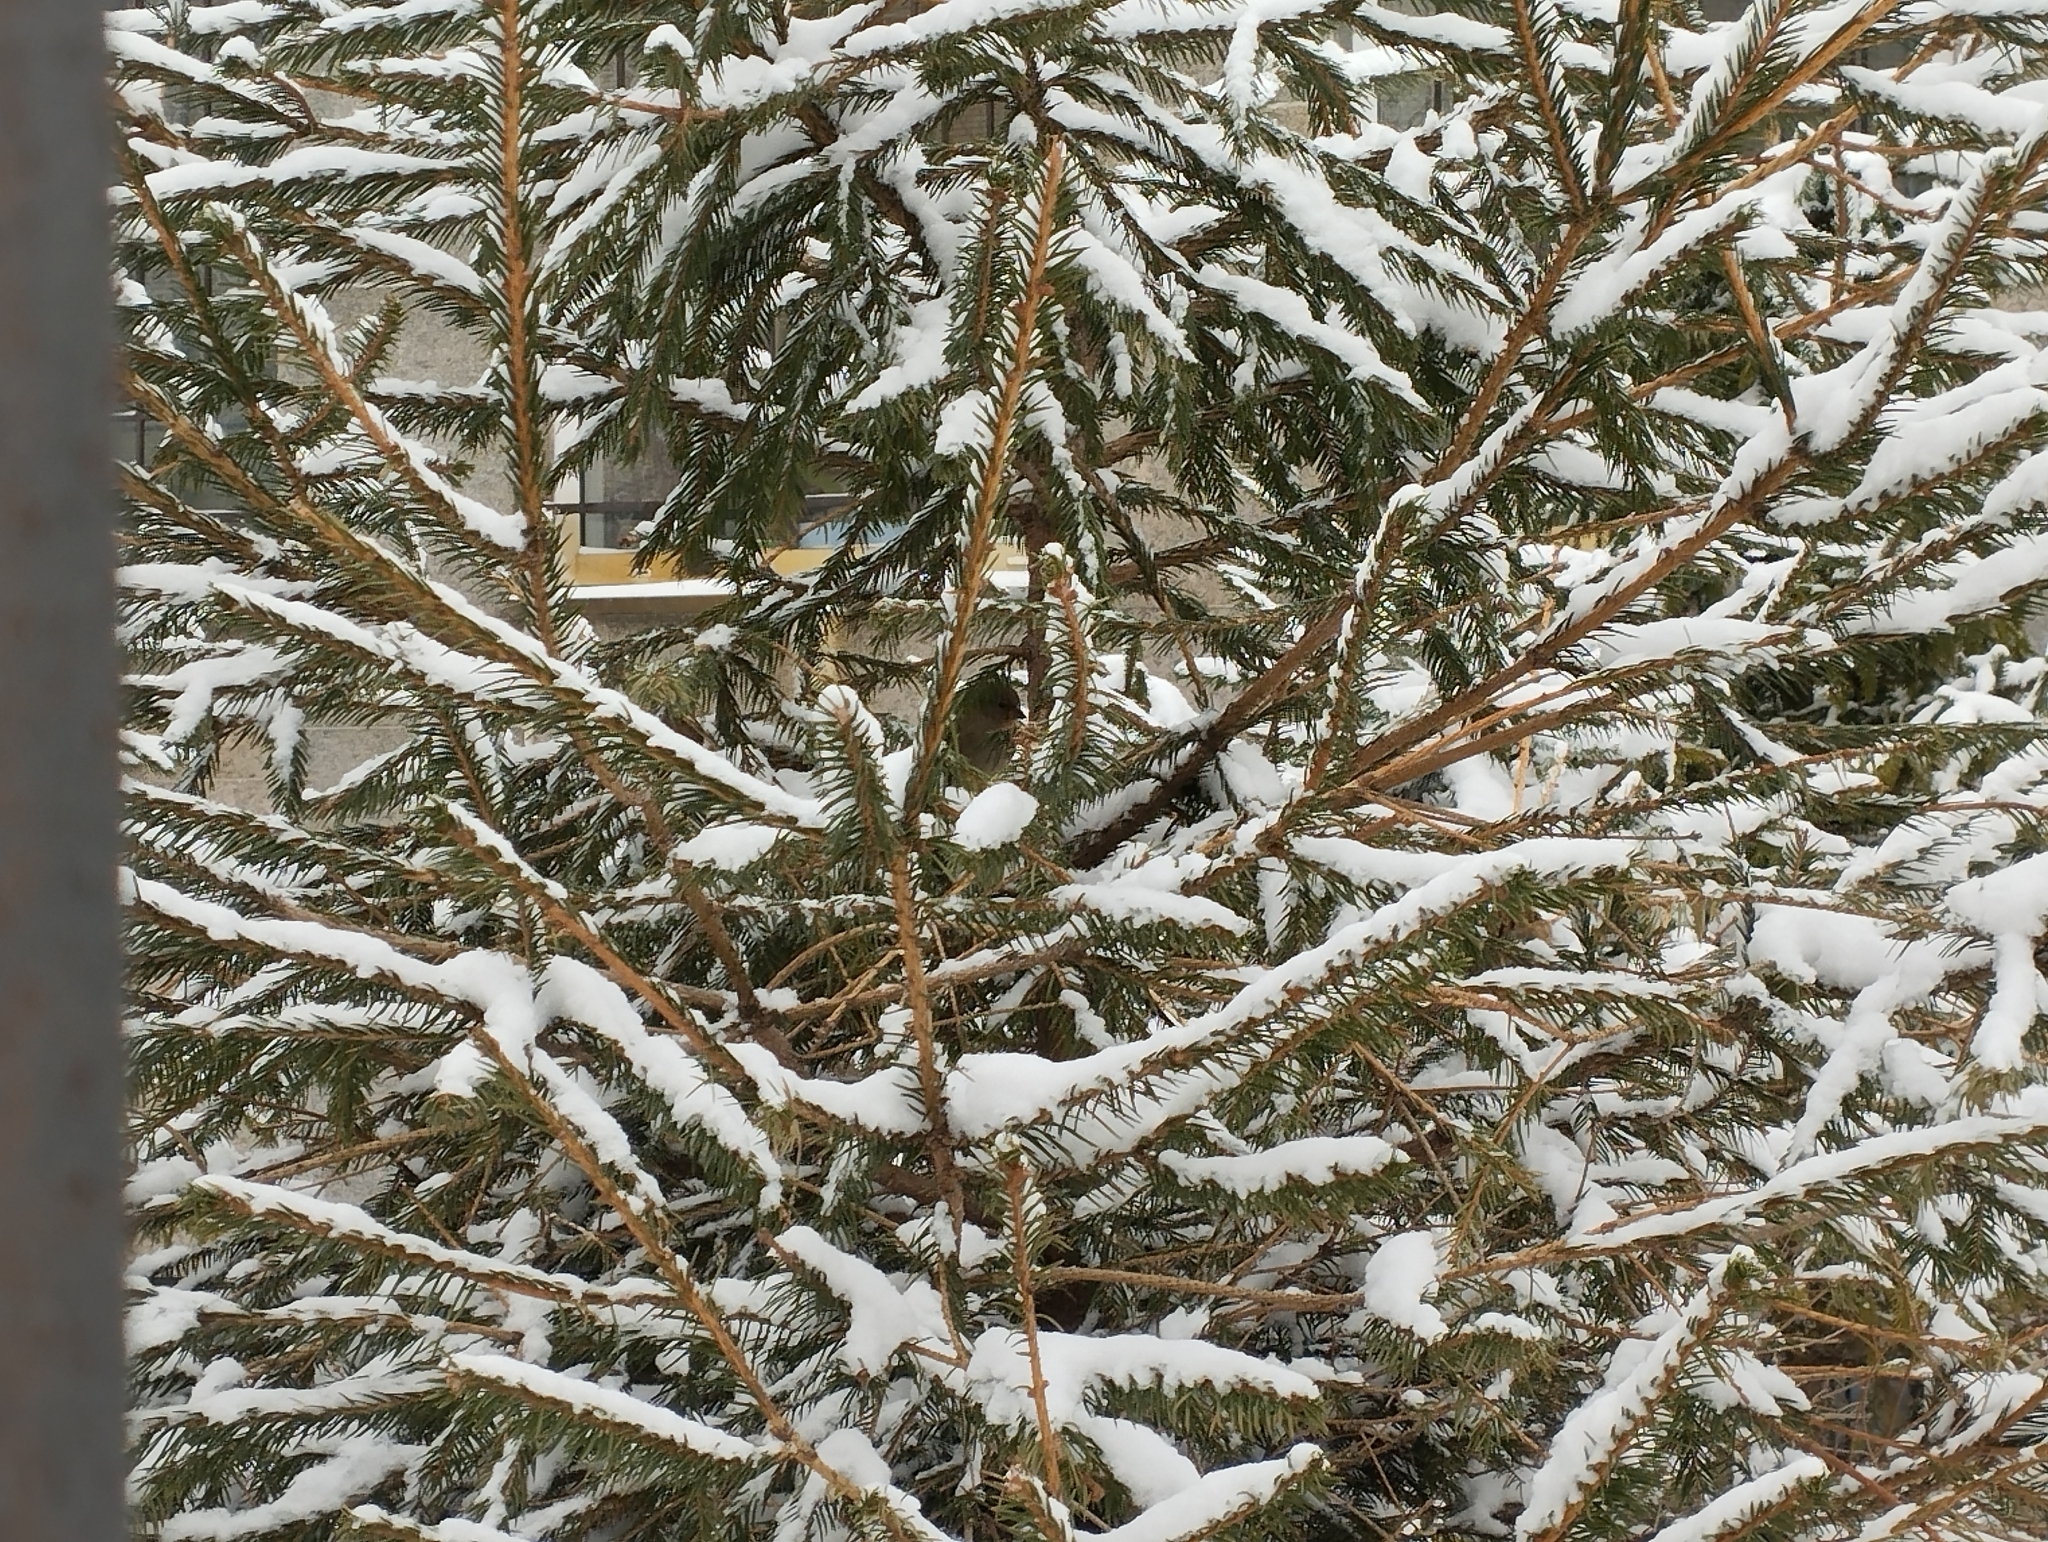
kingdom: Animalia
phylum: Chordata
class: Aves
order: Passeriformes
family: Passeridae
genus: Passer
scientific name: Passer domesticus
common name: House sparrow
